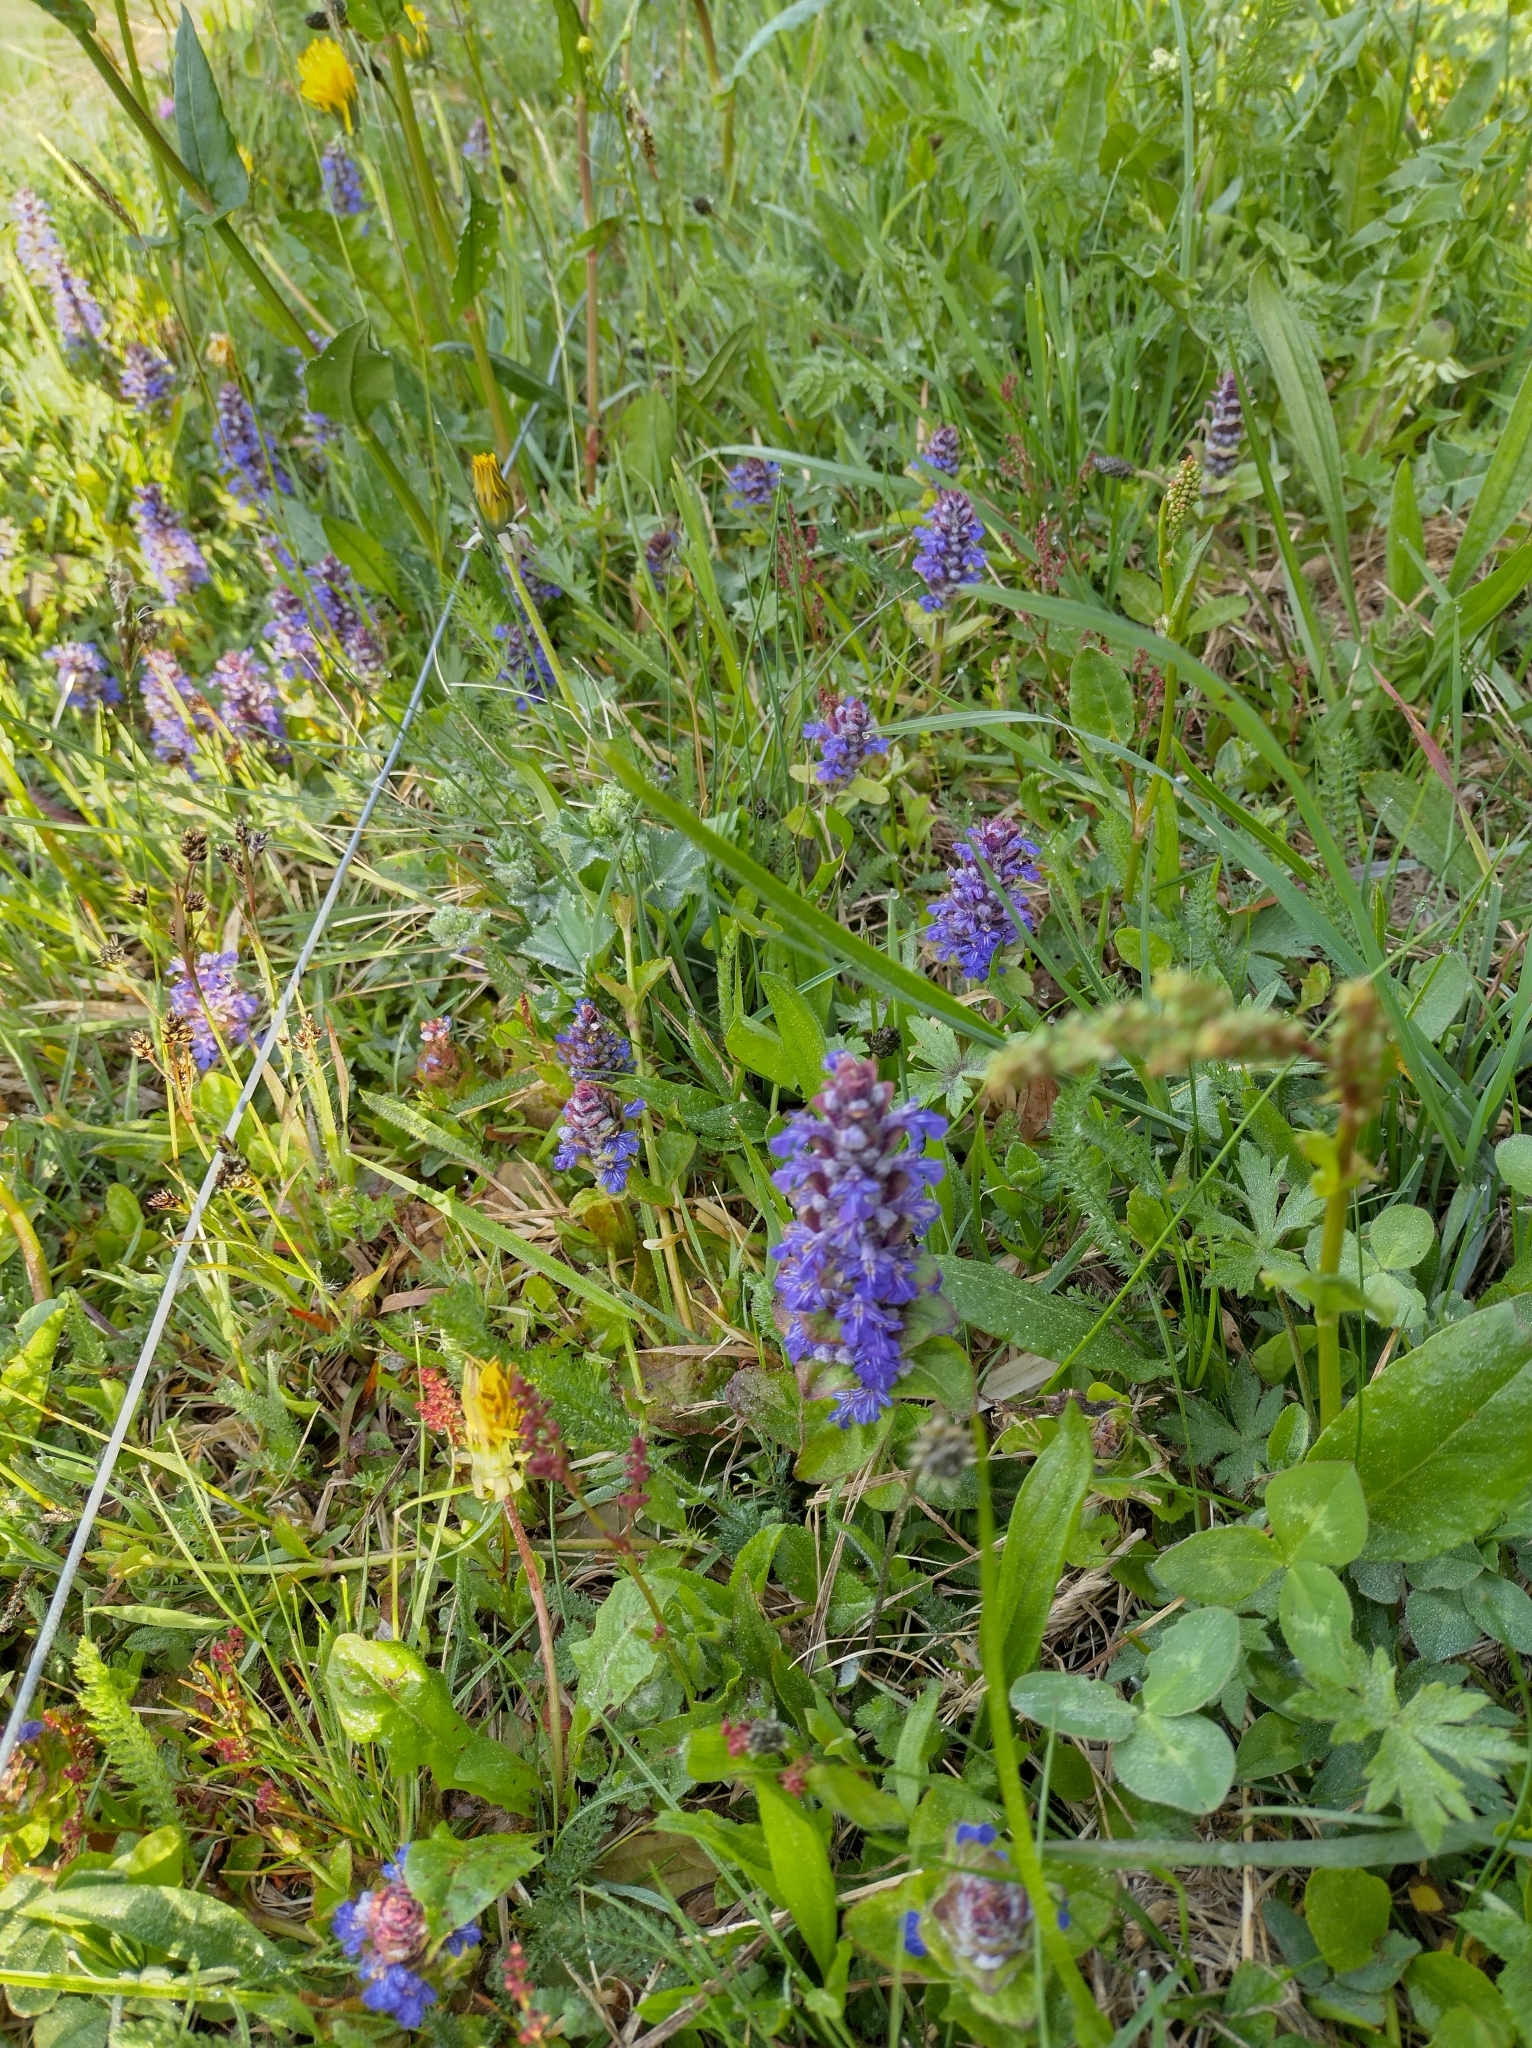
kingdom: Plantae
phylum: Tracheophyta
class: Magnoliopsida
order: Lamiales
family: Lamiaceae
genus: Ajuga
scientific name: Ajuga reptans
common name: Bugle
